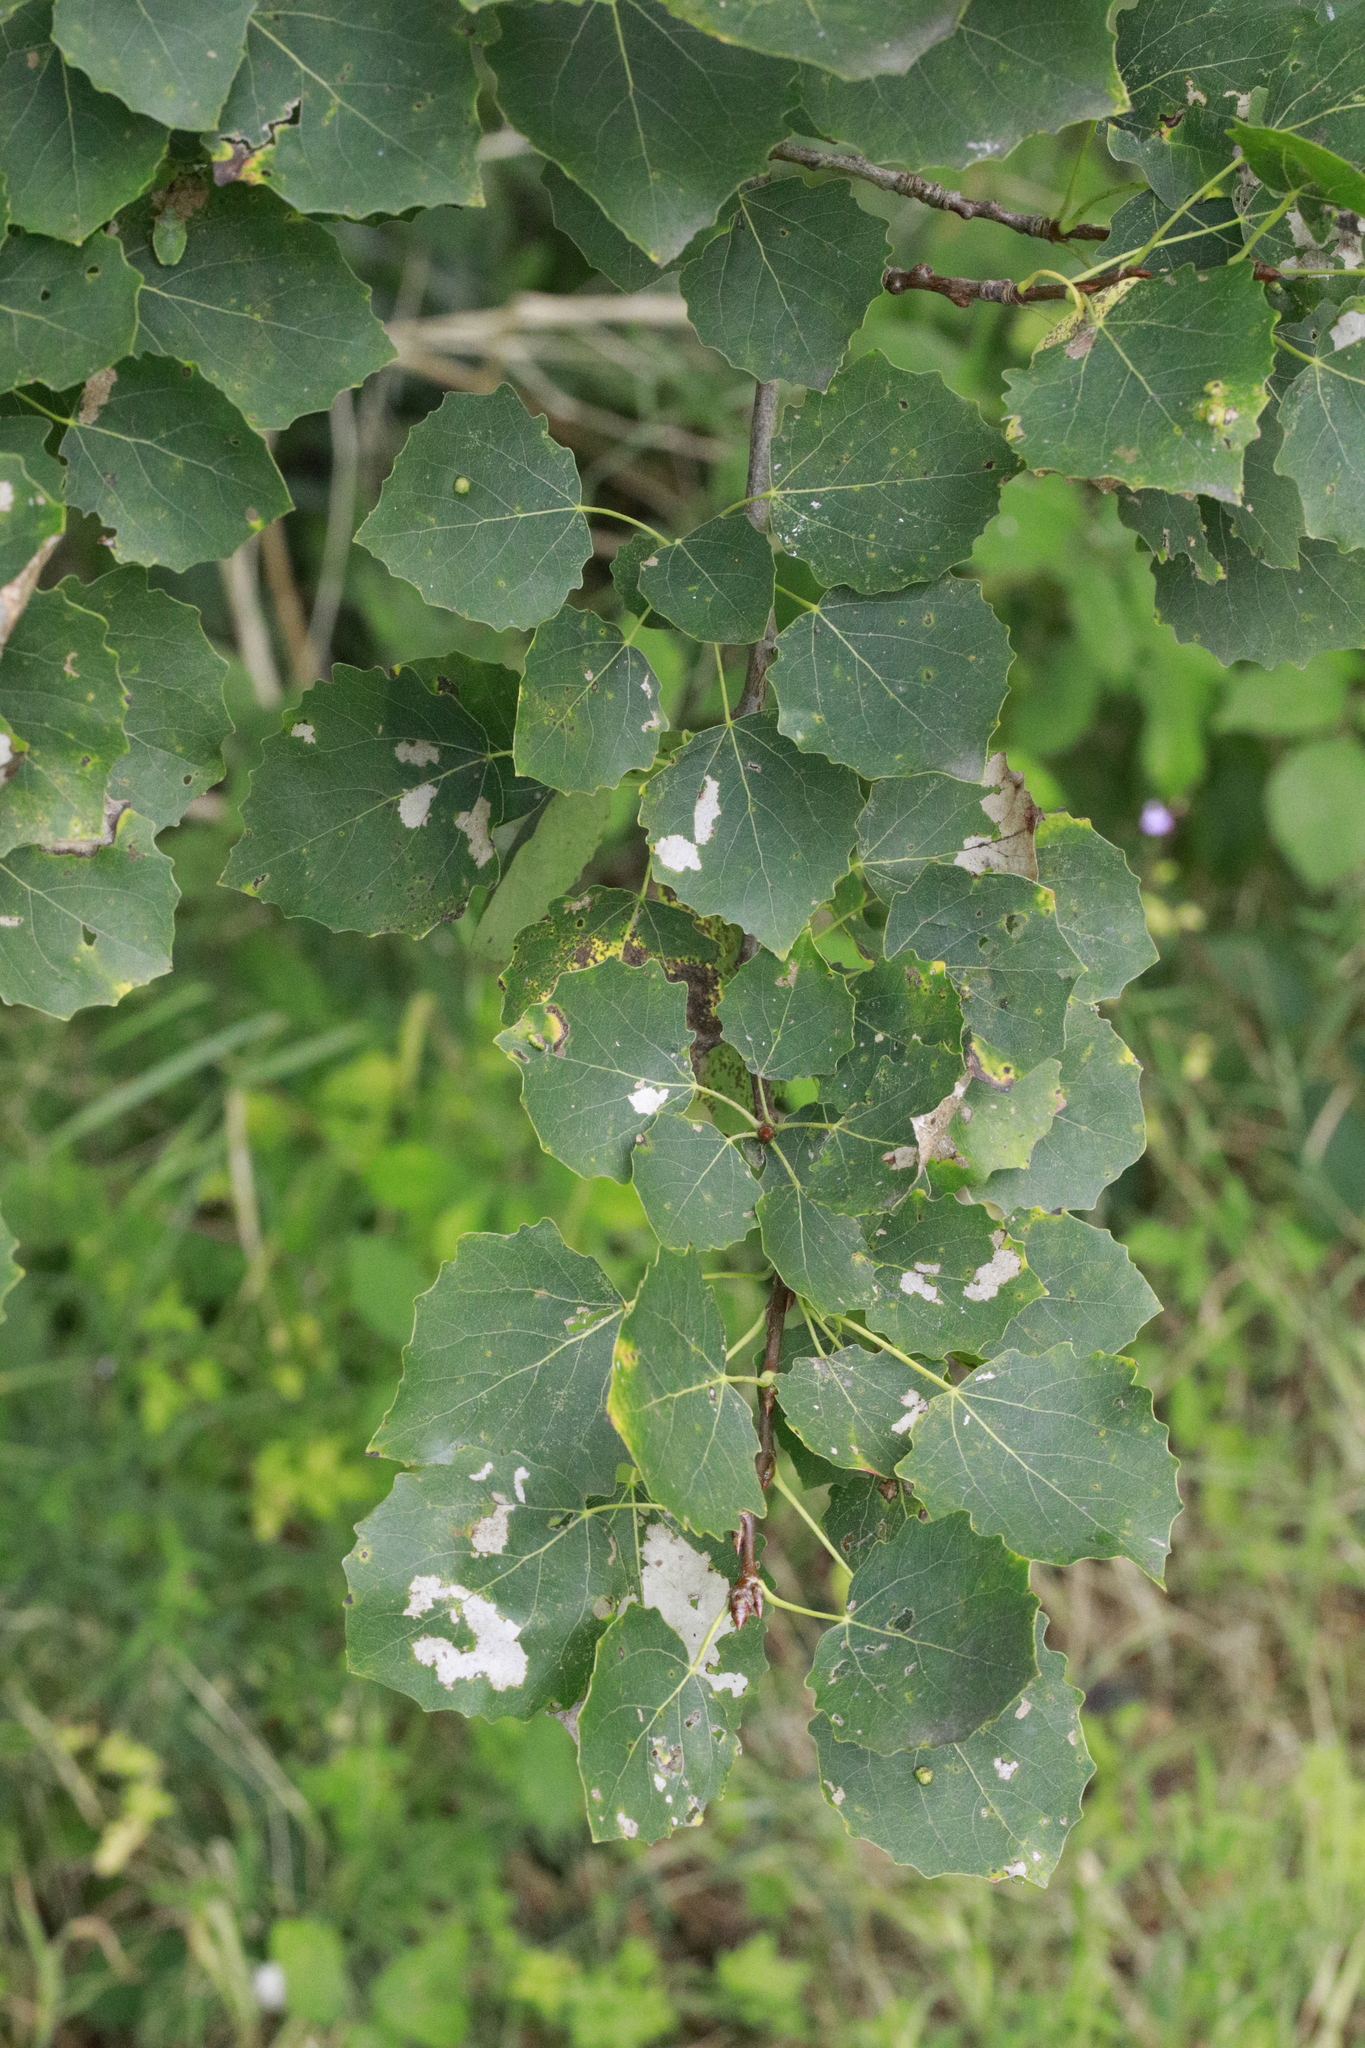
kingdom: Plantae
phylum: Tracheophyta
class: Magnoliopsida
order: Malpighiales
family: Salicaceae
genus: Populus
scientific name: Populus tremula
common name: European aspen
